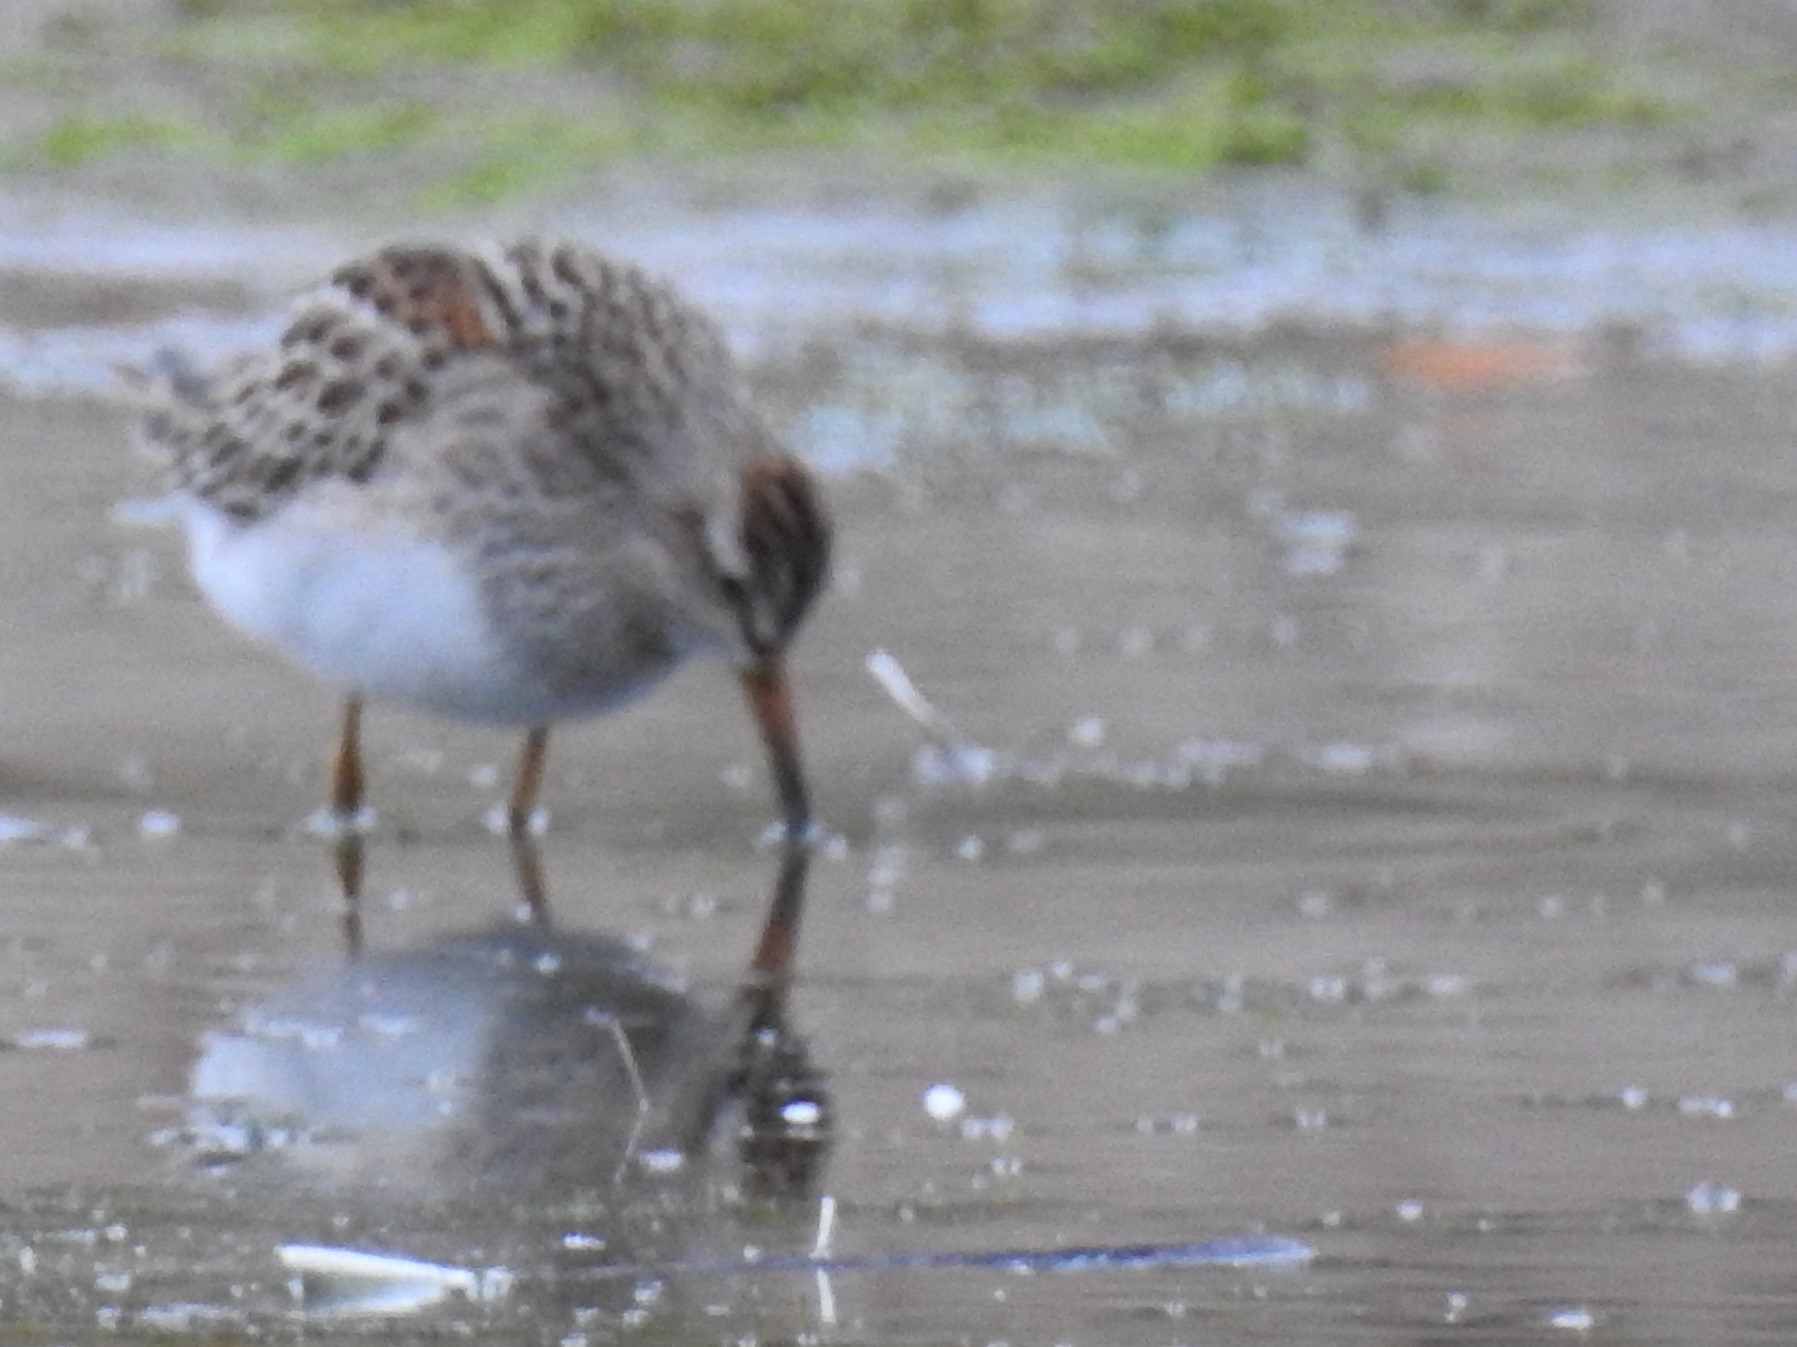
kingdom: Animalia
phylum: Chordata
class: Aves
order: Charadriiformes
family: Scolopacidae
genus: Calidris
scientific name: Calidris melanotos
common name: Pectoral sandpiper
